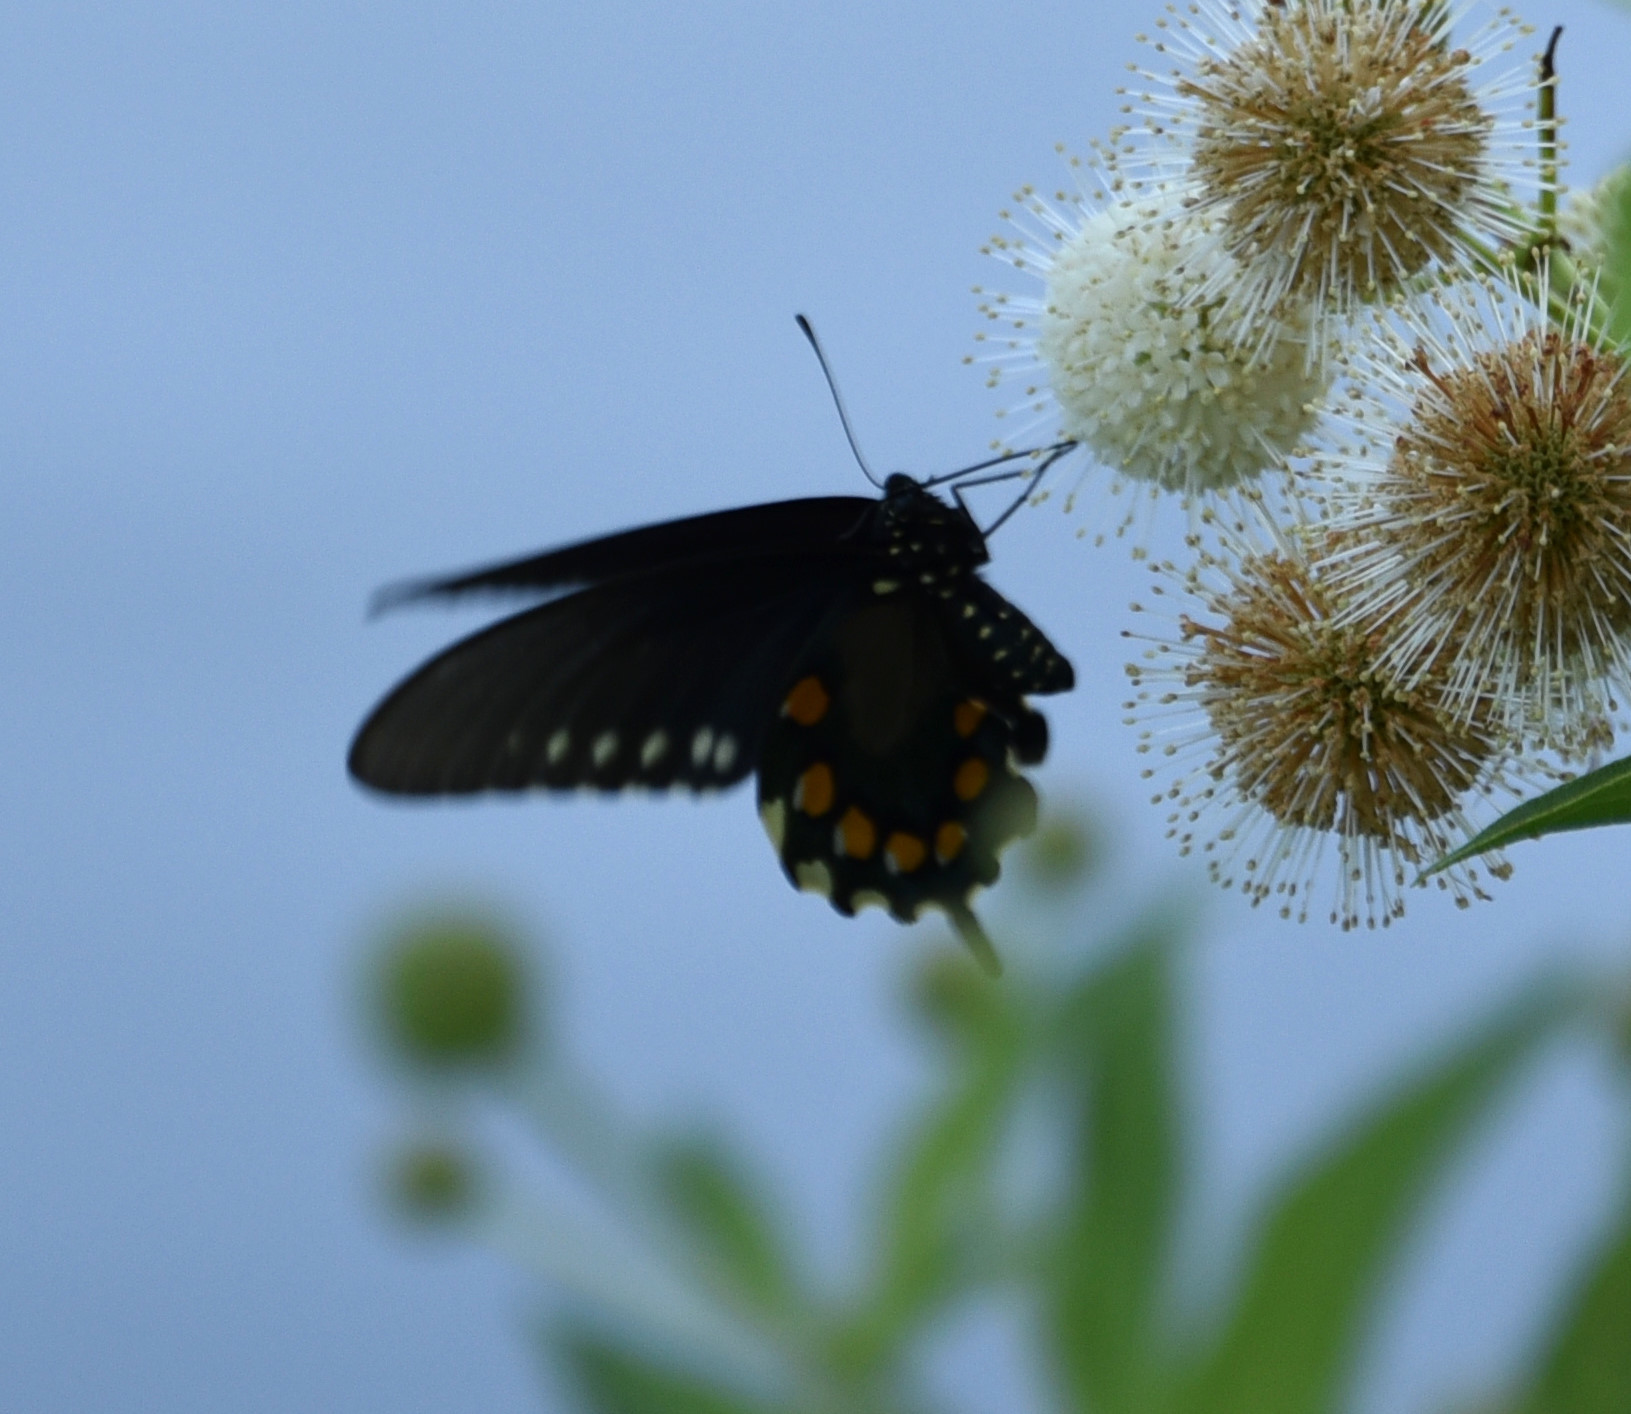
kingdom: Animalia
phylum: Arthropoda
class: Insecta
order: Lepidoptera
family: Papilionidae
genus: Battus
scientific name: Battus philenor
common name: Pipevine swallowtail
